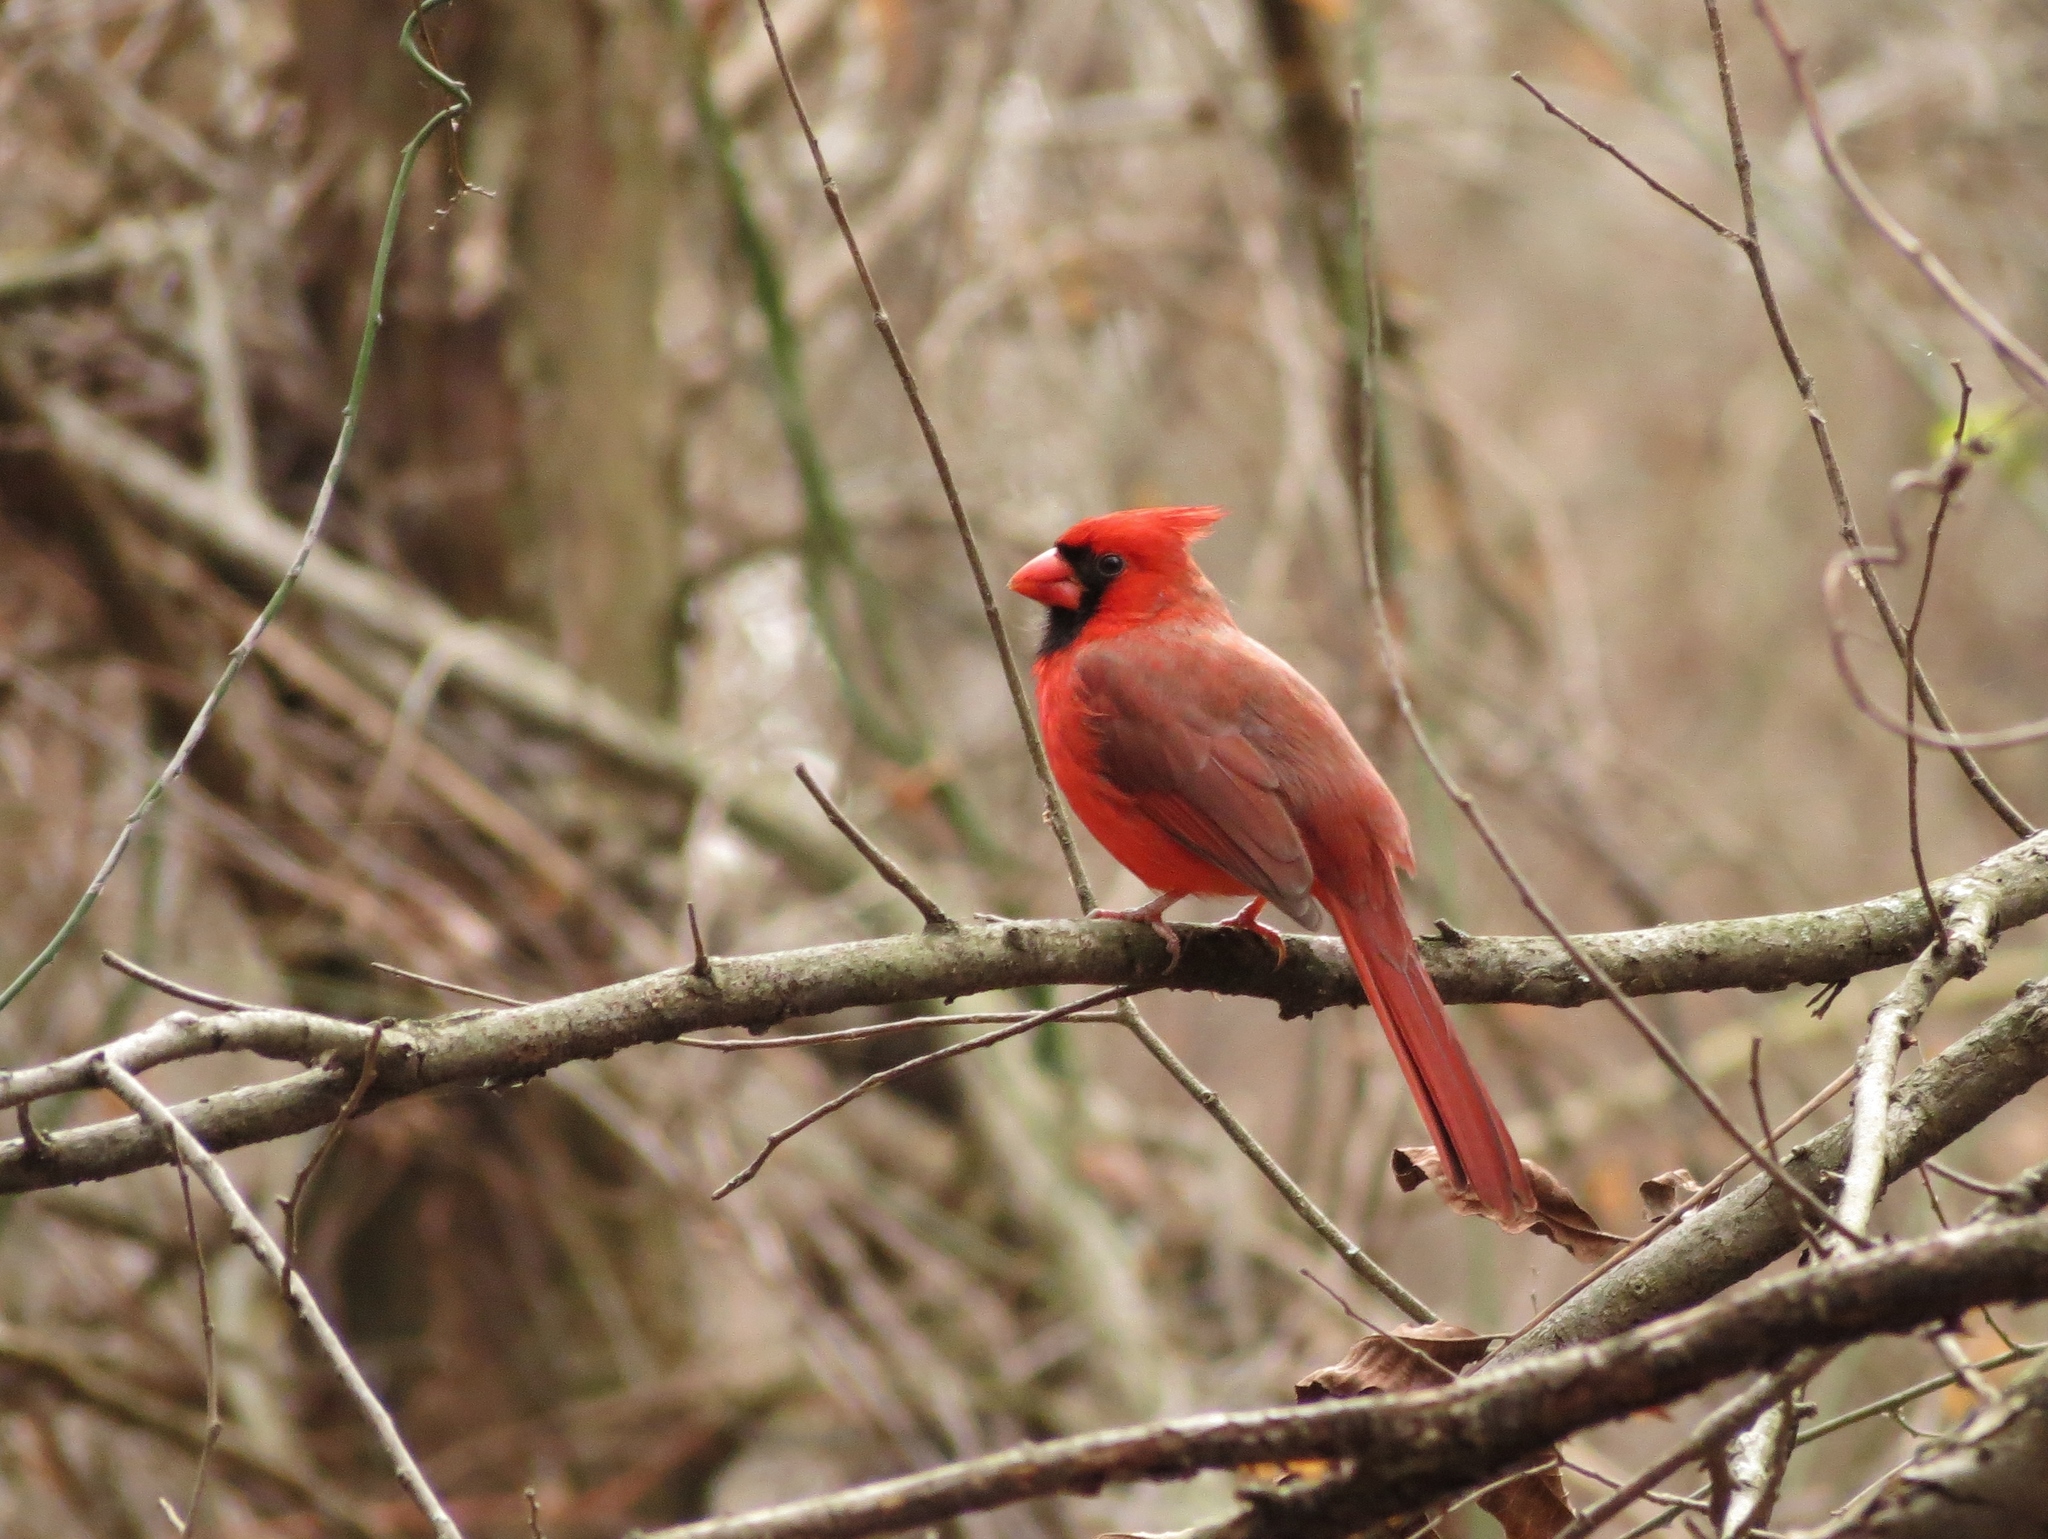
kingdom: Animalia
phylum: Chordata
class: Aves
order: Passeriformes
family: Cardinalidae
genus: Cardinalis
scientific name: Cardinalis cardinalis
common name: Northern cardinal
